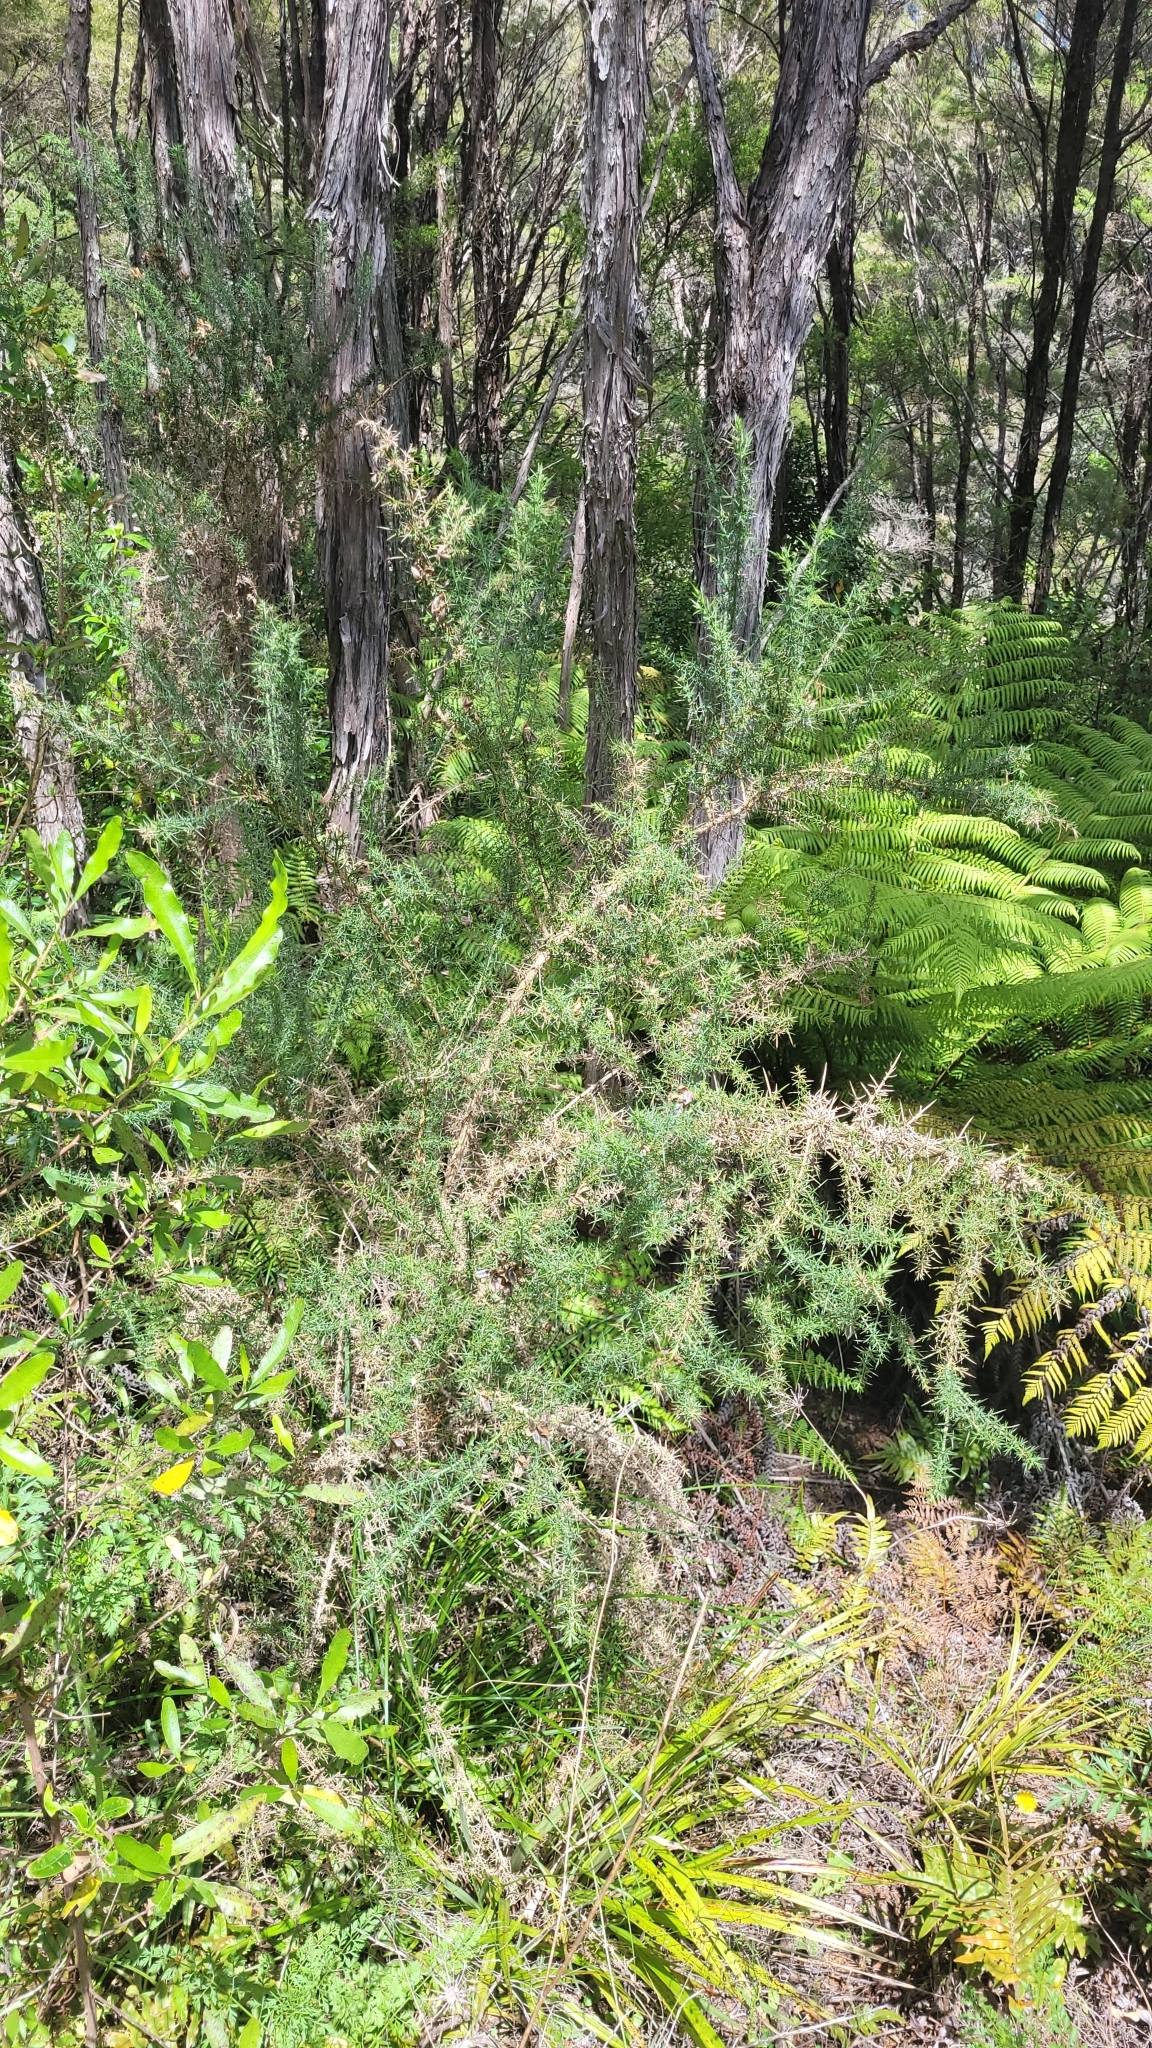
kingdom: Plantae
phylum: Tracheophyta
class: Magnoliopsida
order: Fabales
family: Fabaceae
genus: Ulex
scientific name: Ulex europaeus
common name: Common gorse
